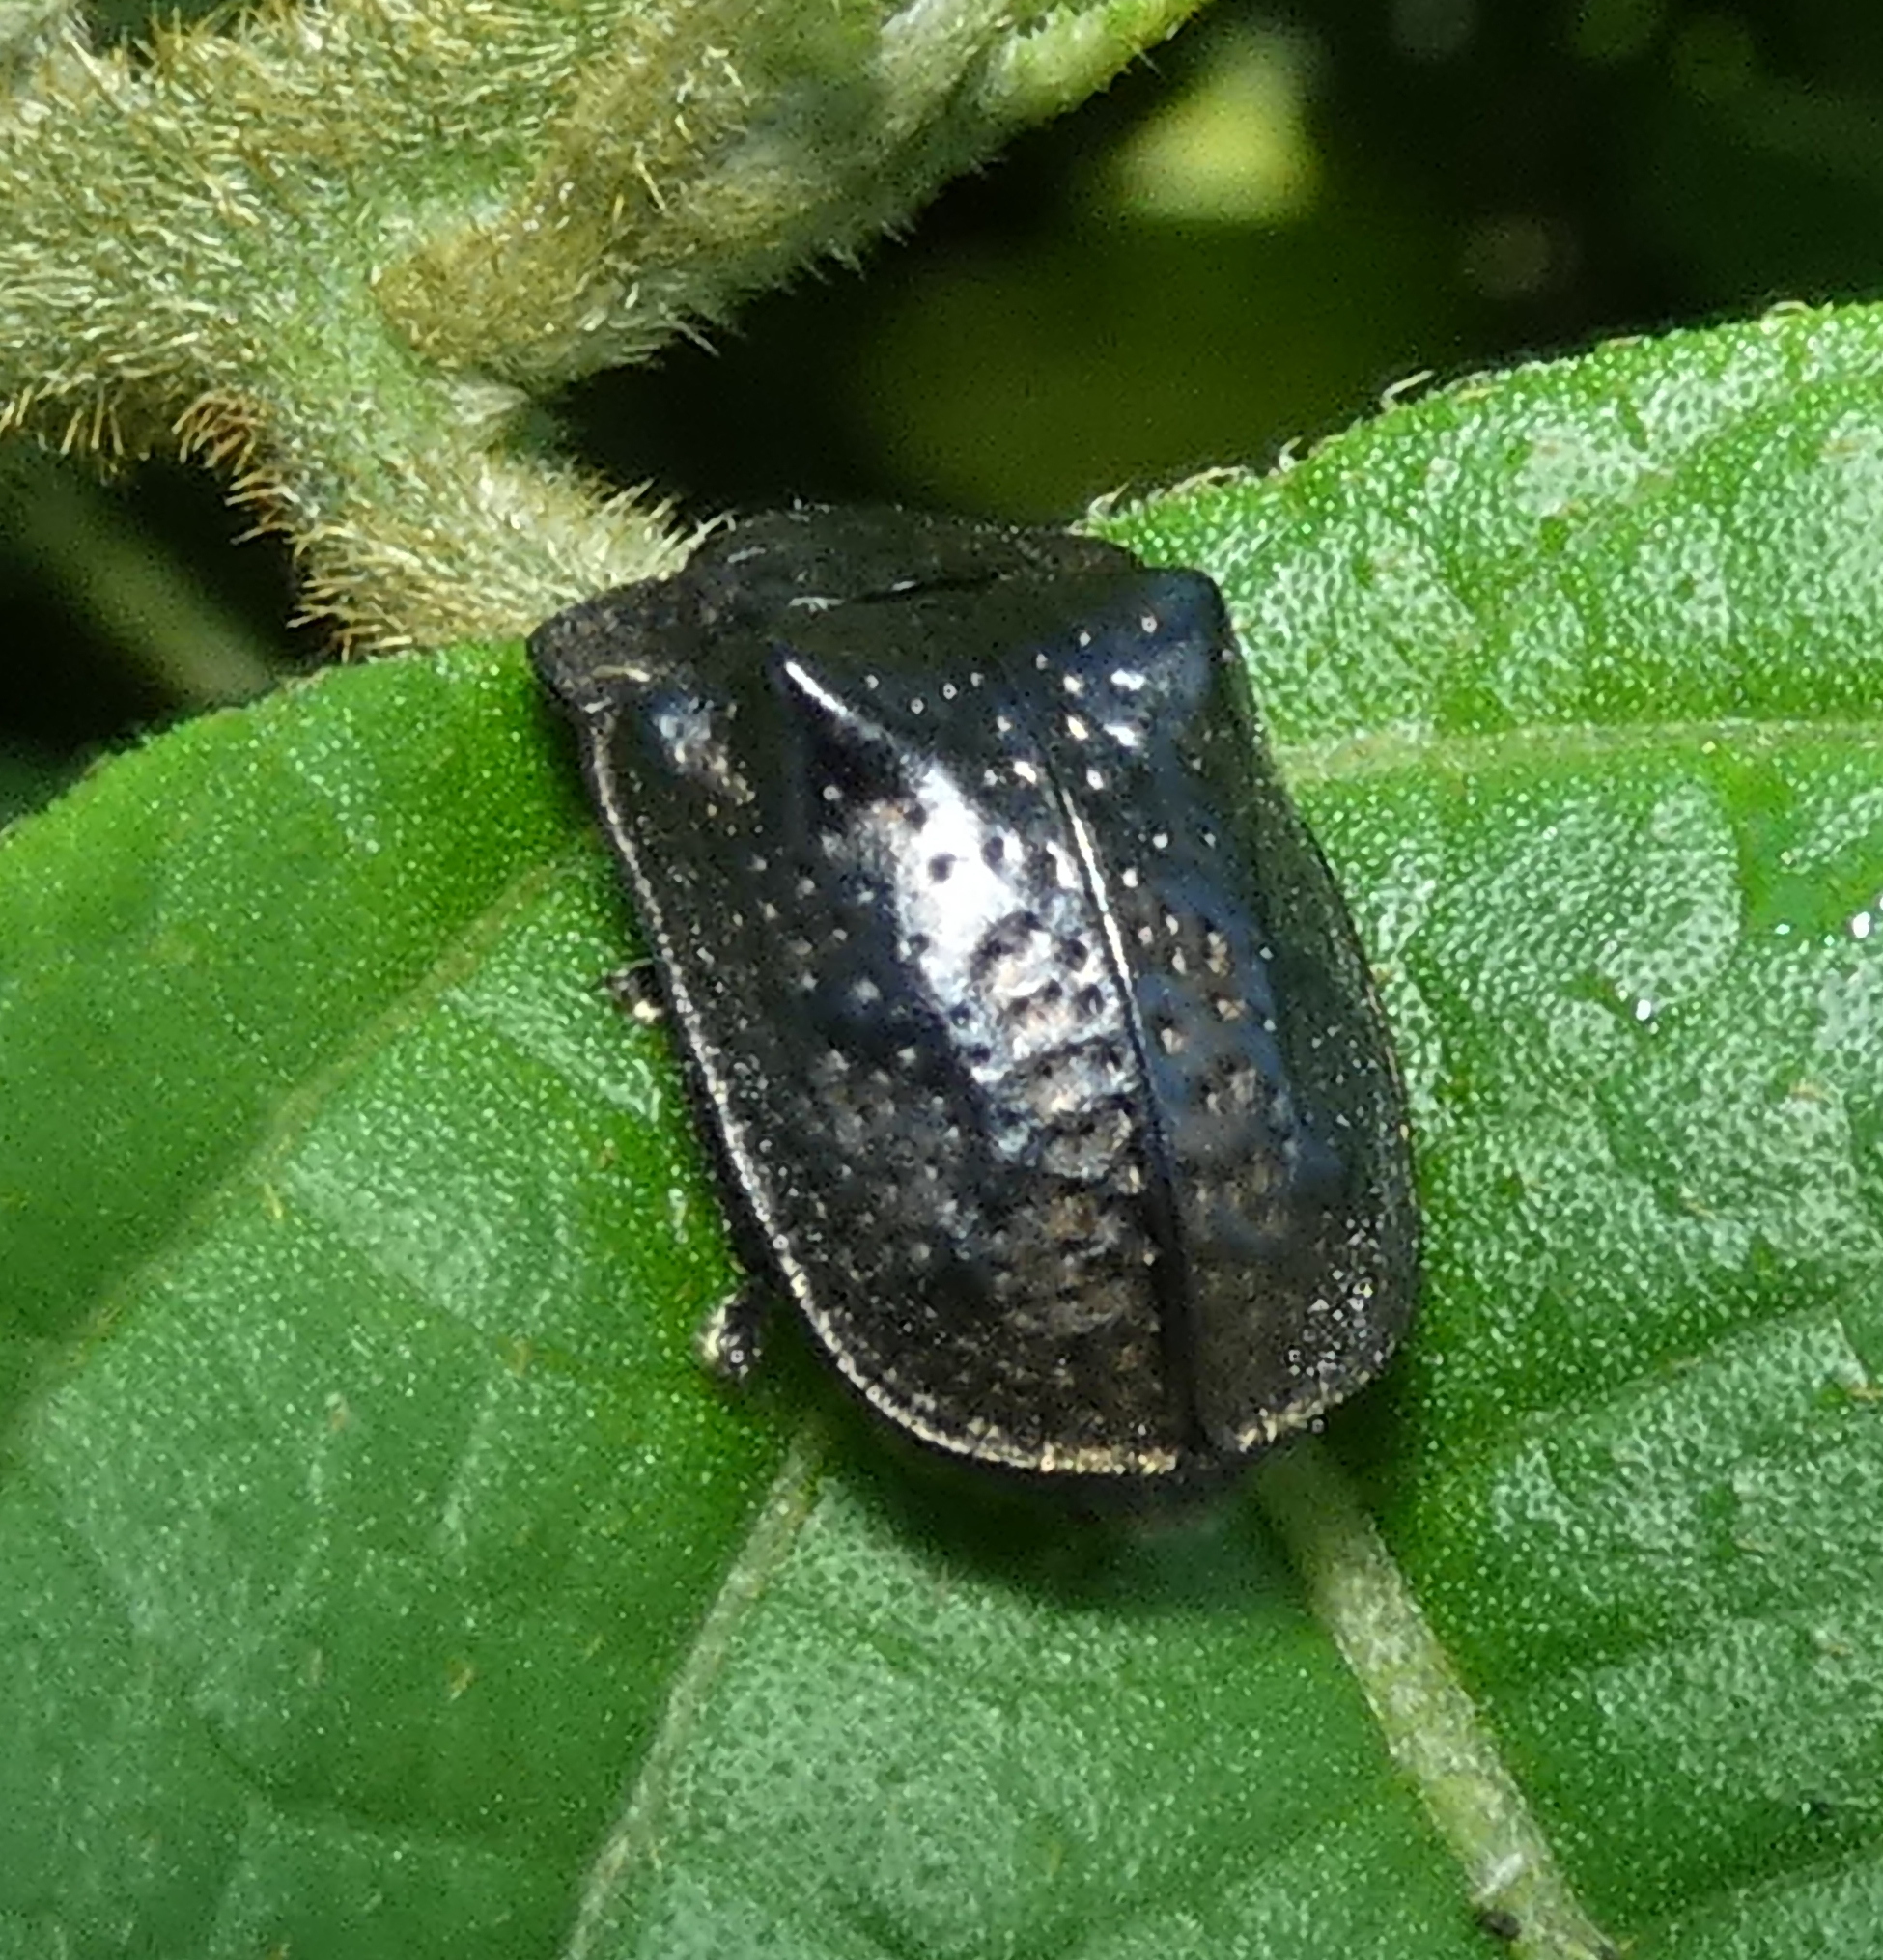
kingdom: Animalia
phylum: Arthropoda
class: Insecta
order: Coleoptera
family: Chrysomelidae
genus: Chlamydocassis
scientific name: Chlamydocassis bicornuta
